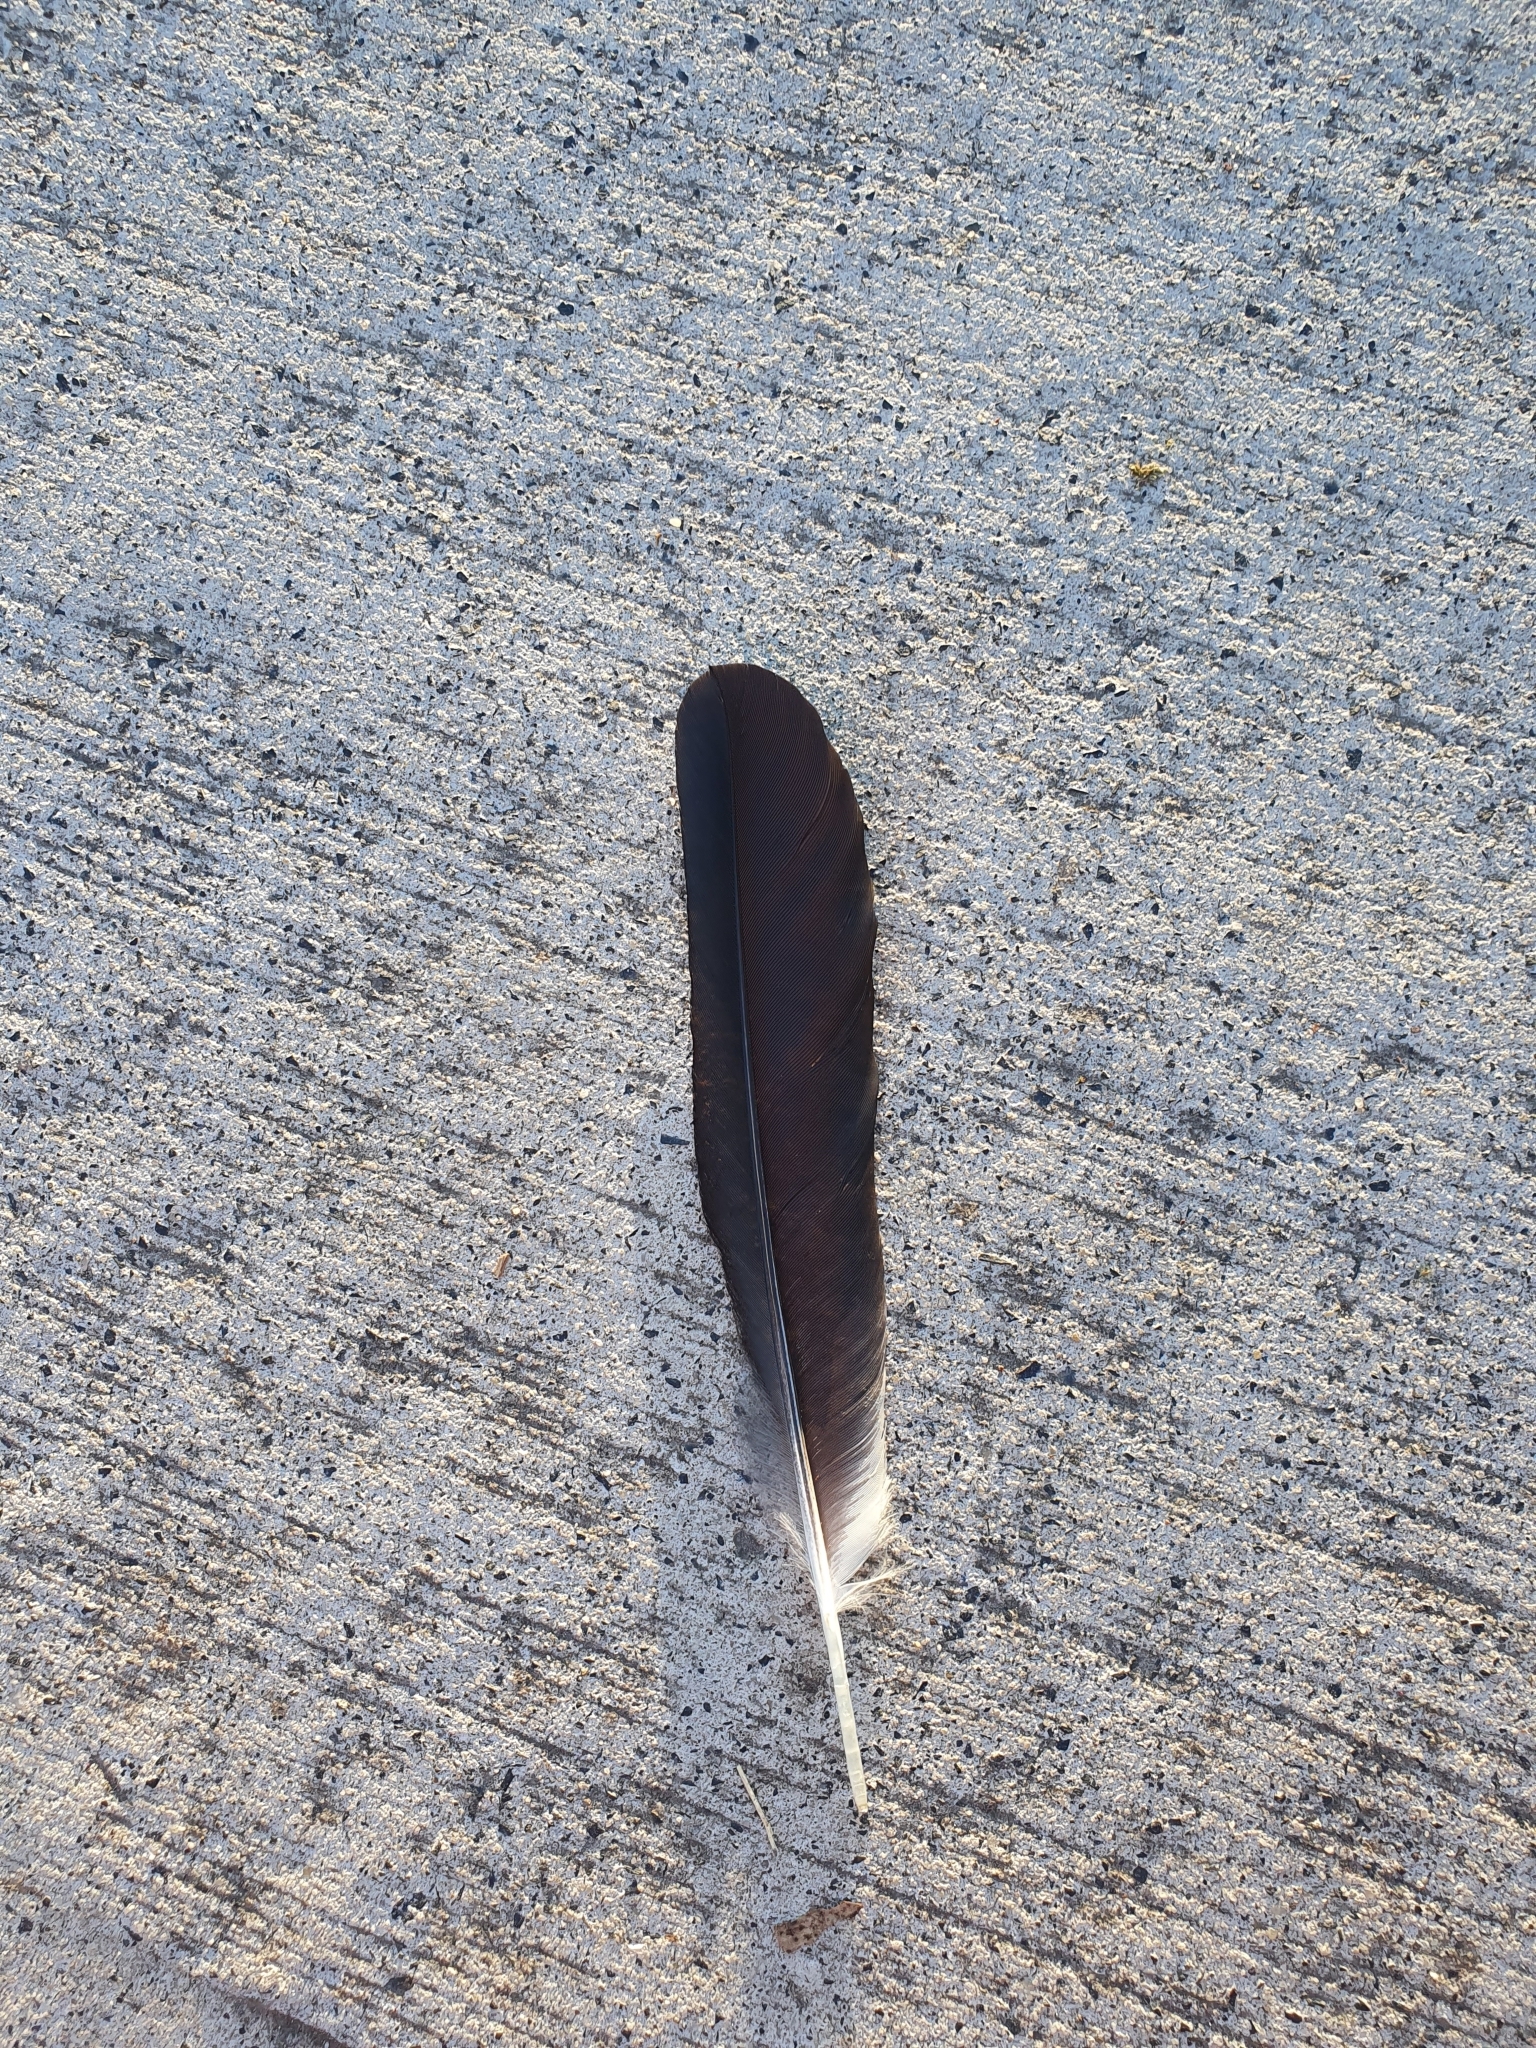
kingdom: Animalia
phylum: Chordata
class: Aves
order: Passeriformes
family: Cracticidae
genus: Strepera
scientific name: Strepera graculina
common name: Pied currawong
